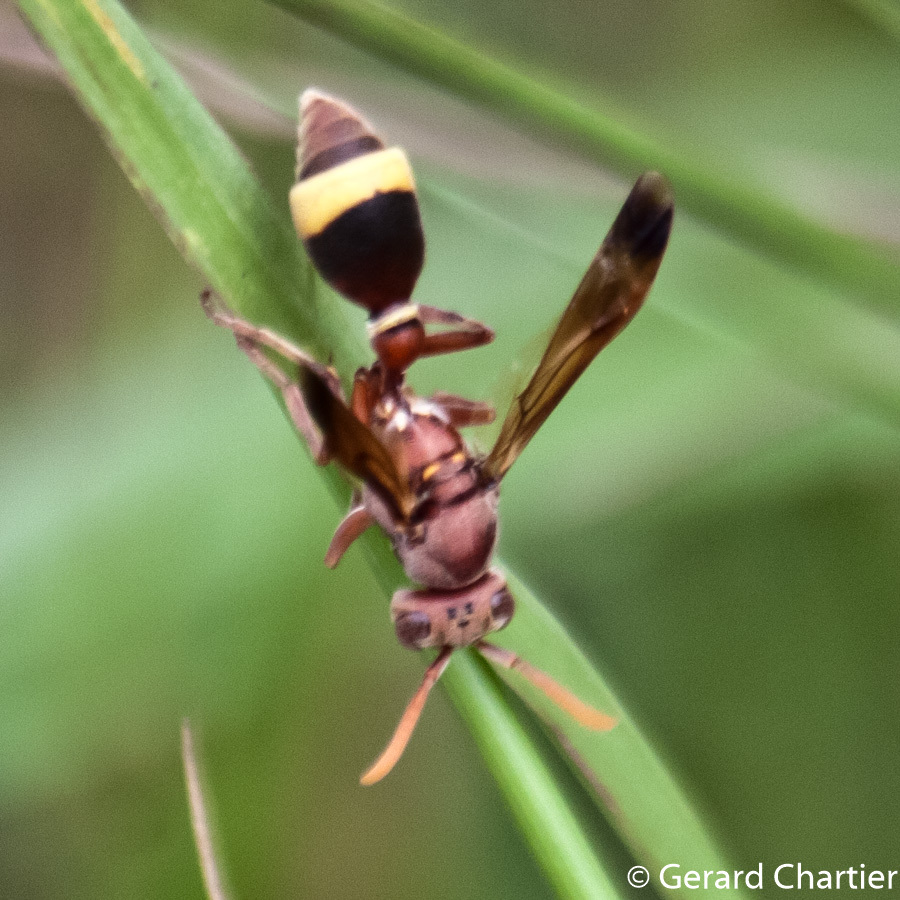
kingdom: Animalia
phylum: Arthropoda
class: Insecta
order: Hymenoptera
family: Vespidae
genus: Ropalidia
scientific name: Ropalidia marginata
